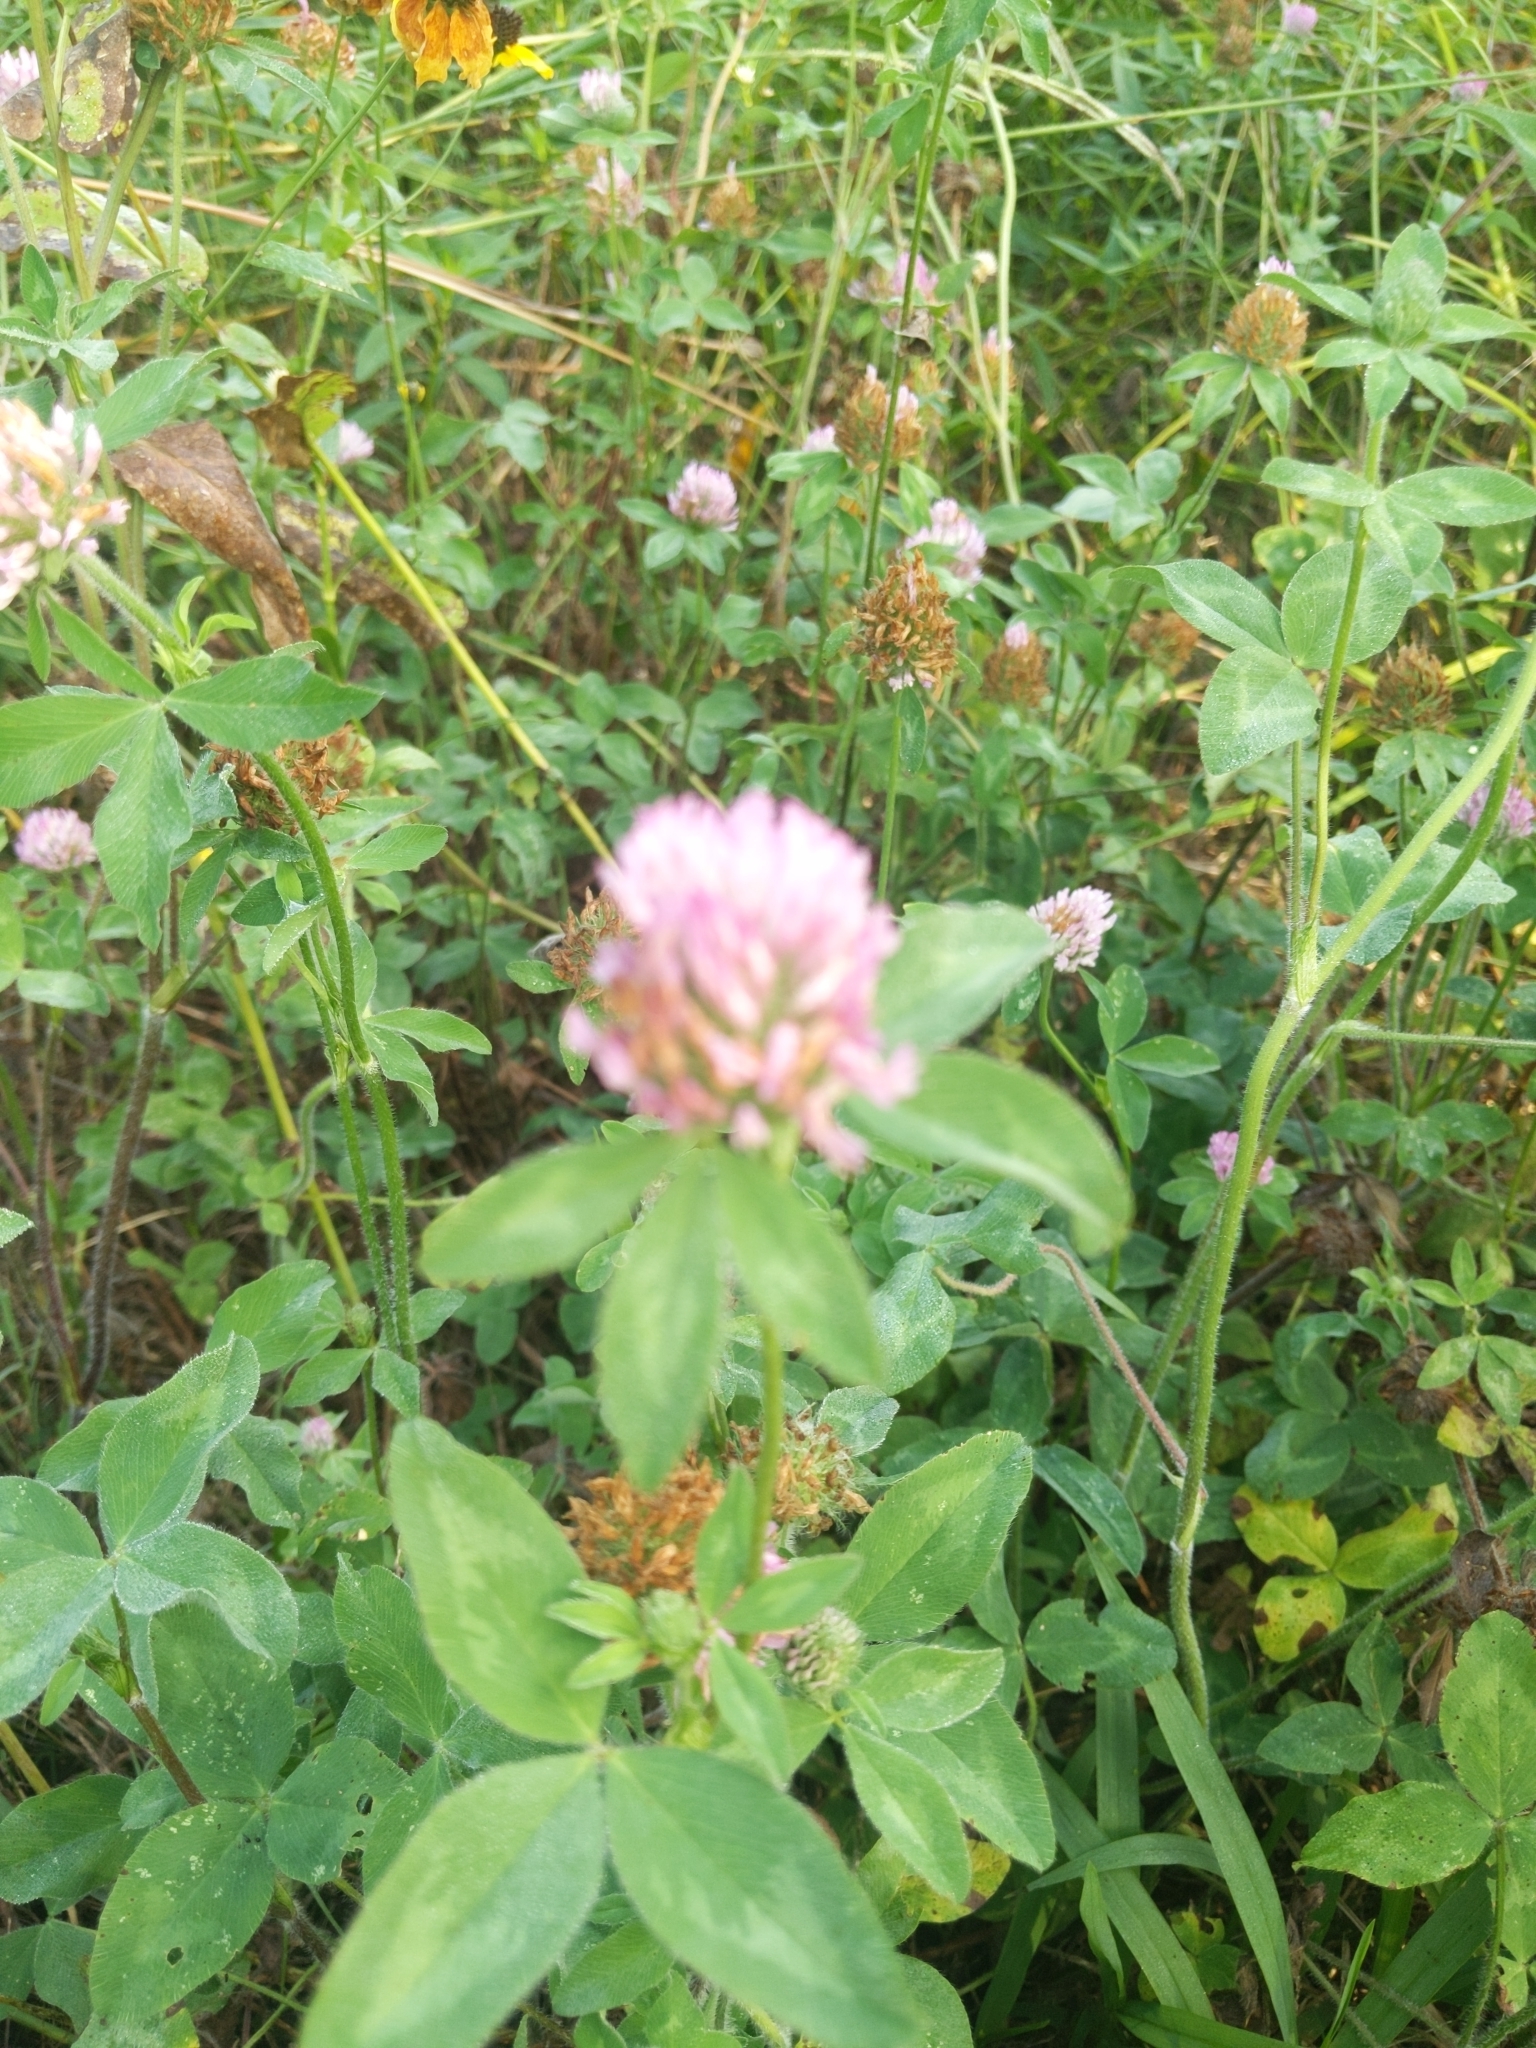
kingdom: Plantae
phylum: Tracheophyta
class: Magnoliopsida
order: Fabales
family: Fabaceae
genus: Trifolium
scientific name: Trifolium pratense
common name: Red clover
